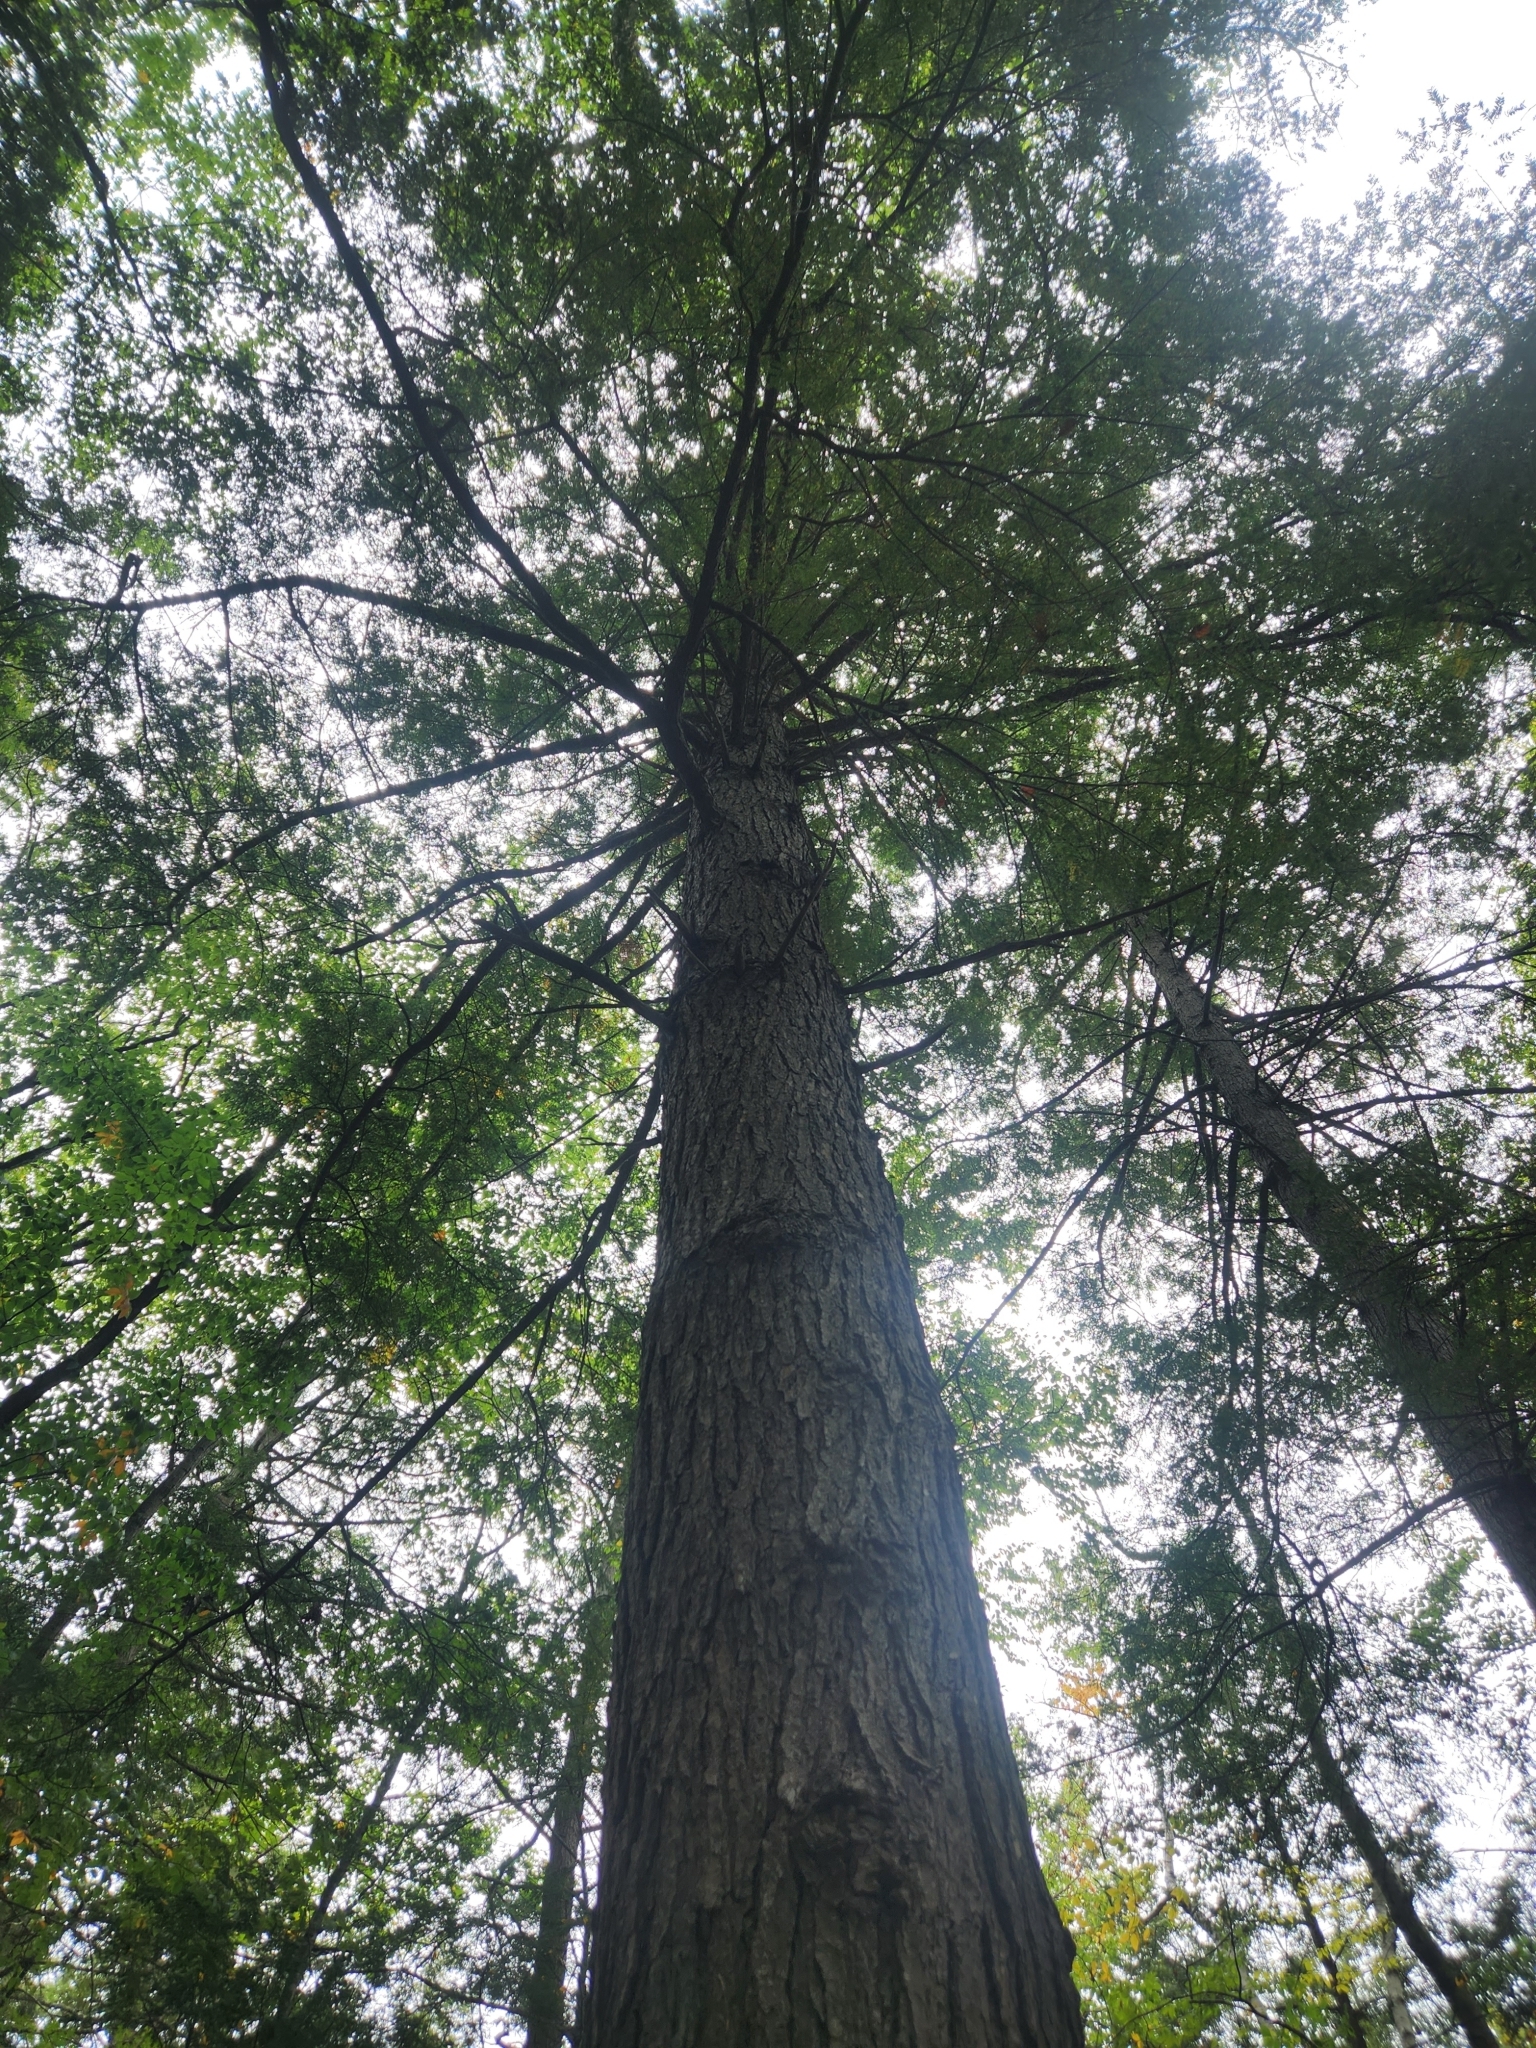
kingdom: Plantae
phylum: Tracheophyta
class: Pinopsida
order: Pinales
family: Pinaceae
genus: Tsuga
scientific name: Tsuga canadensis
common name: Eastern hemlock
